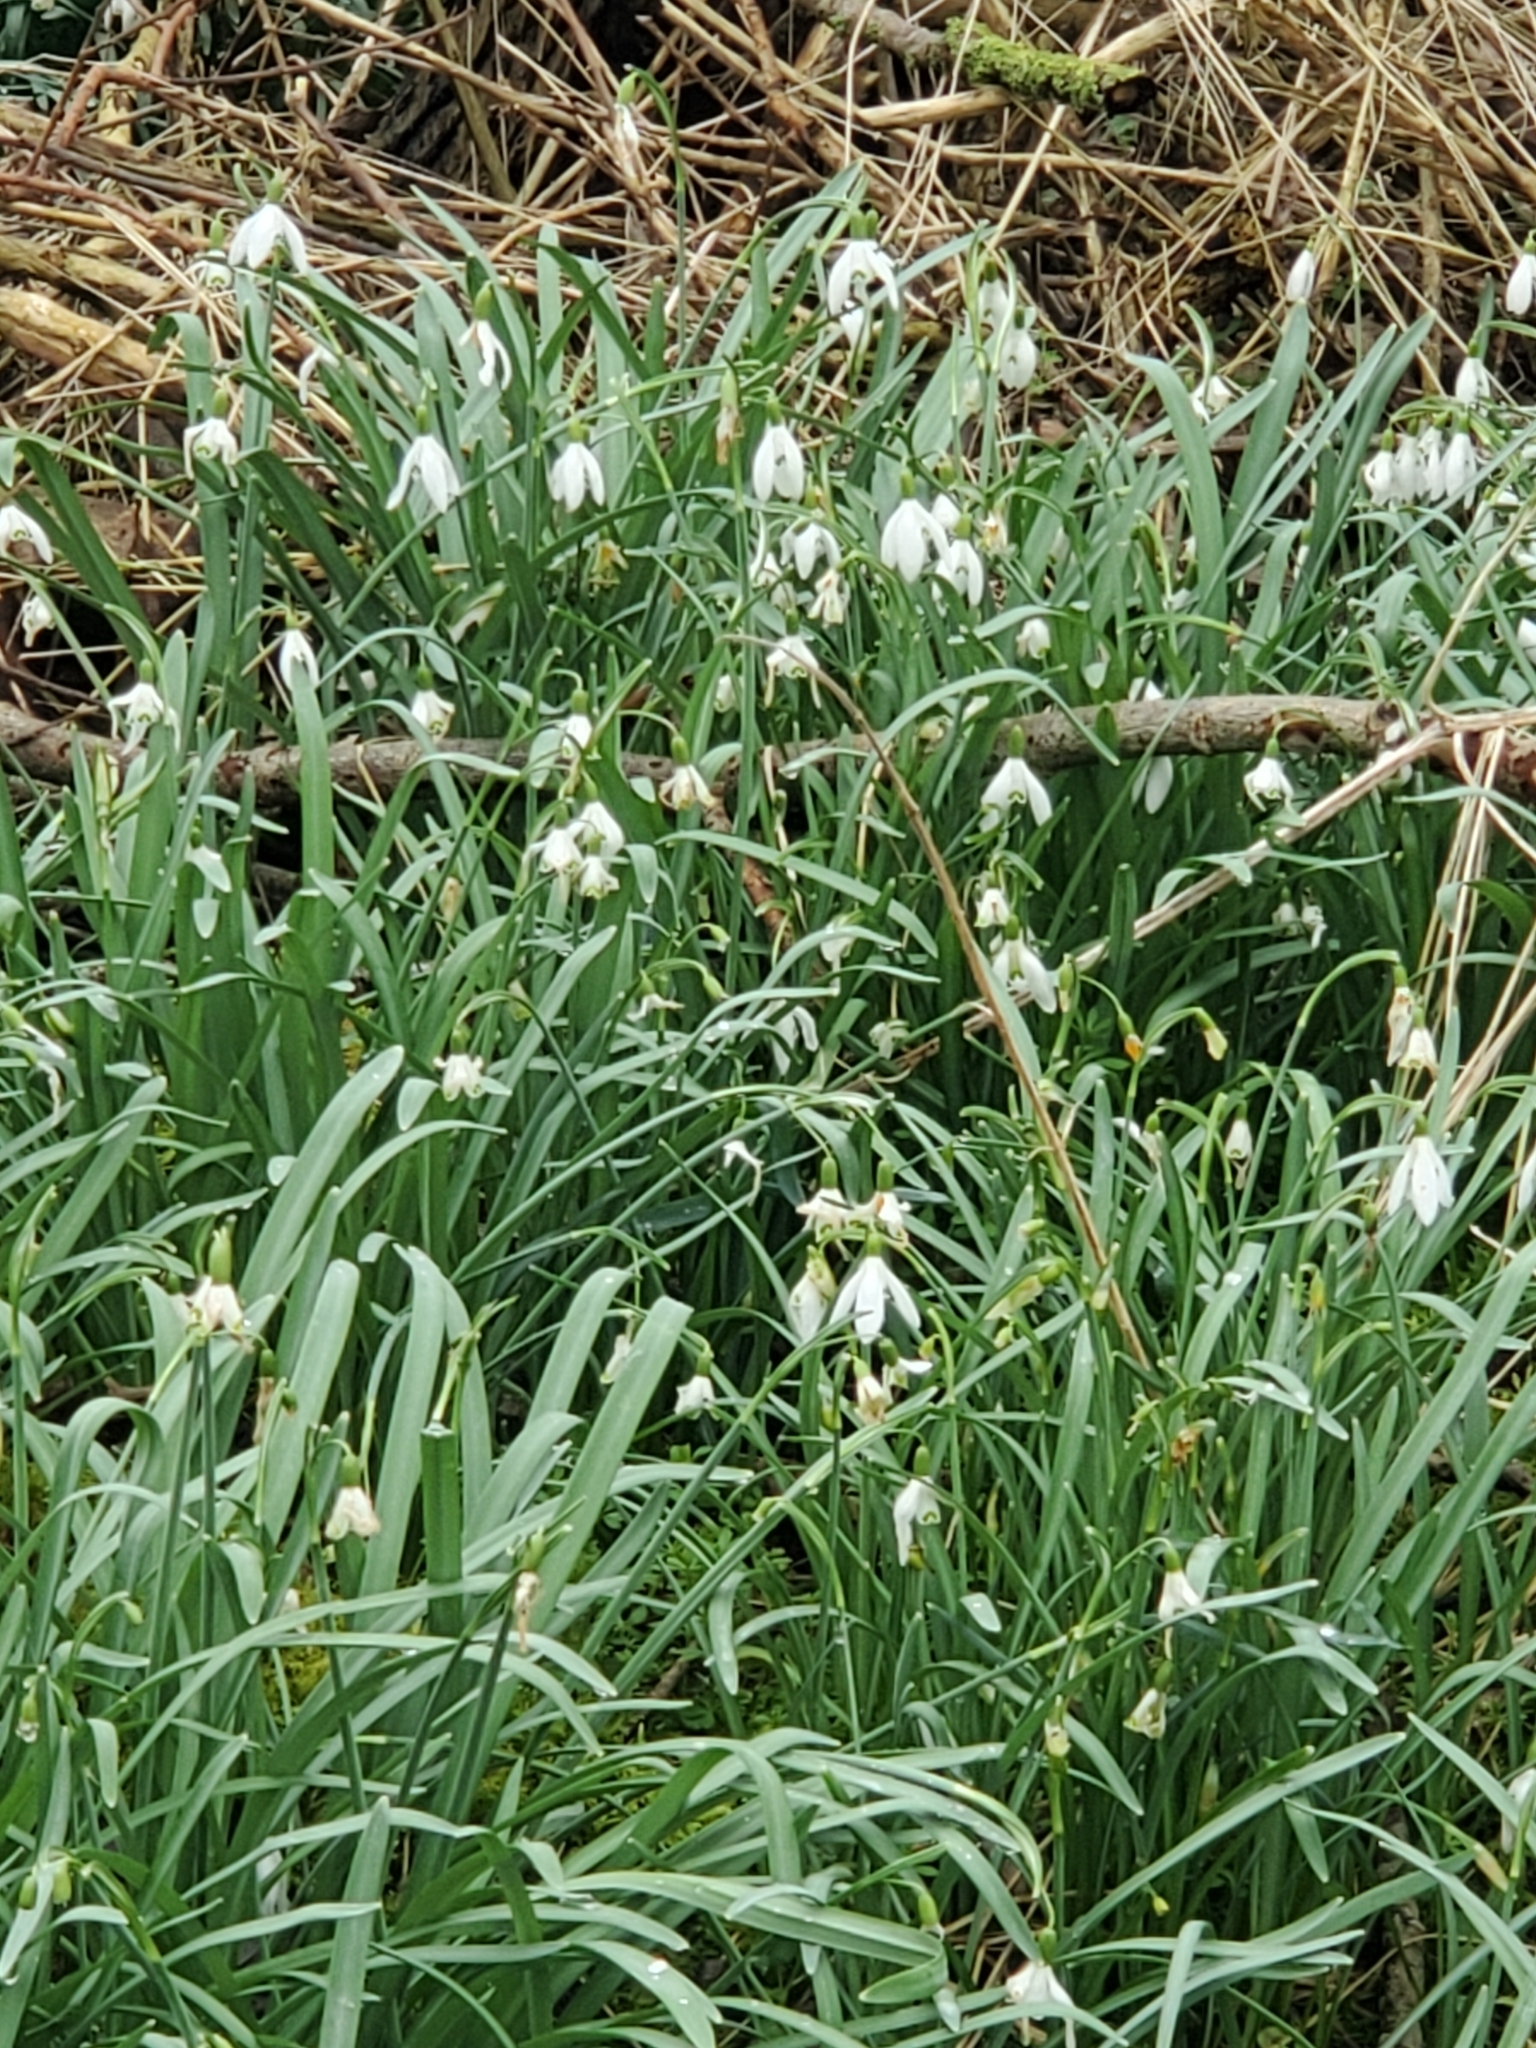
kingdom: Plantae
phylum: Tracheophyta
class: Liliopsida
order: Asparagales
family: Amaryllidaceae
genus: Galanthus
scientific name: Galanthus nivalis
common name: Snowdrop
